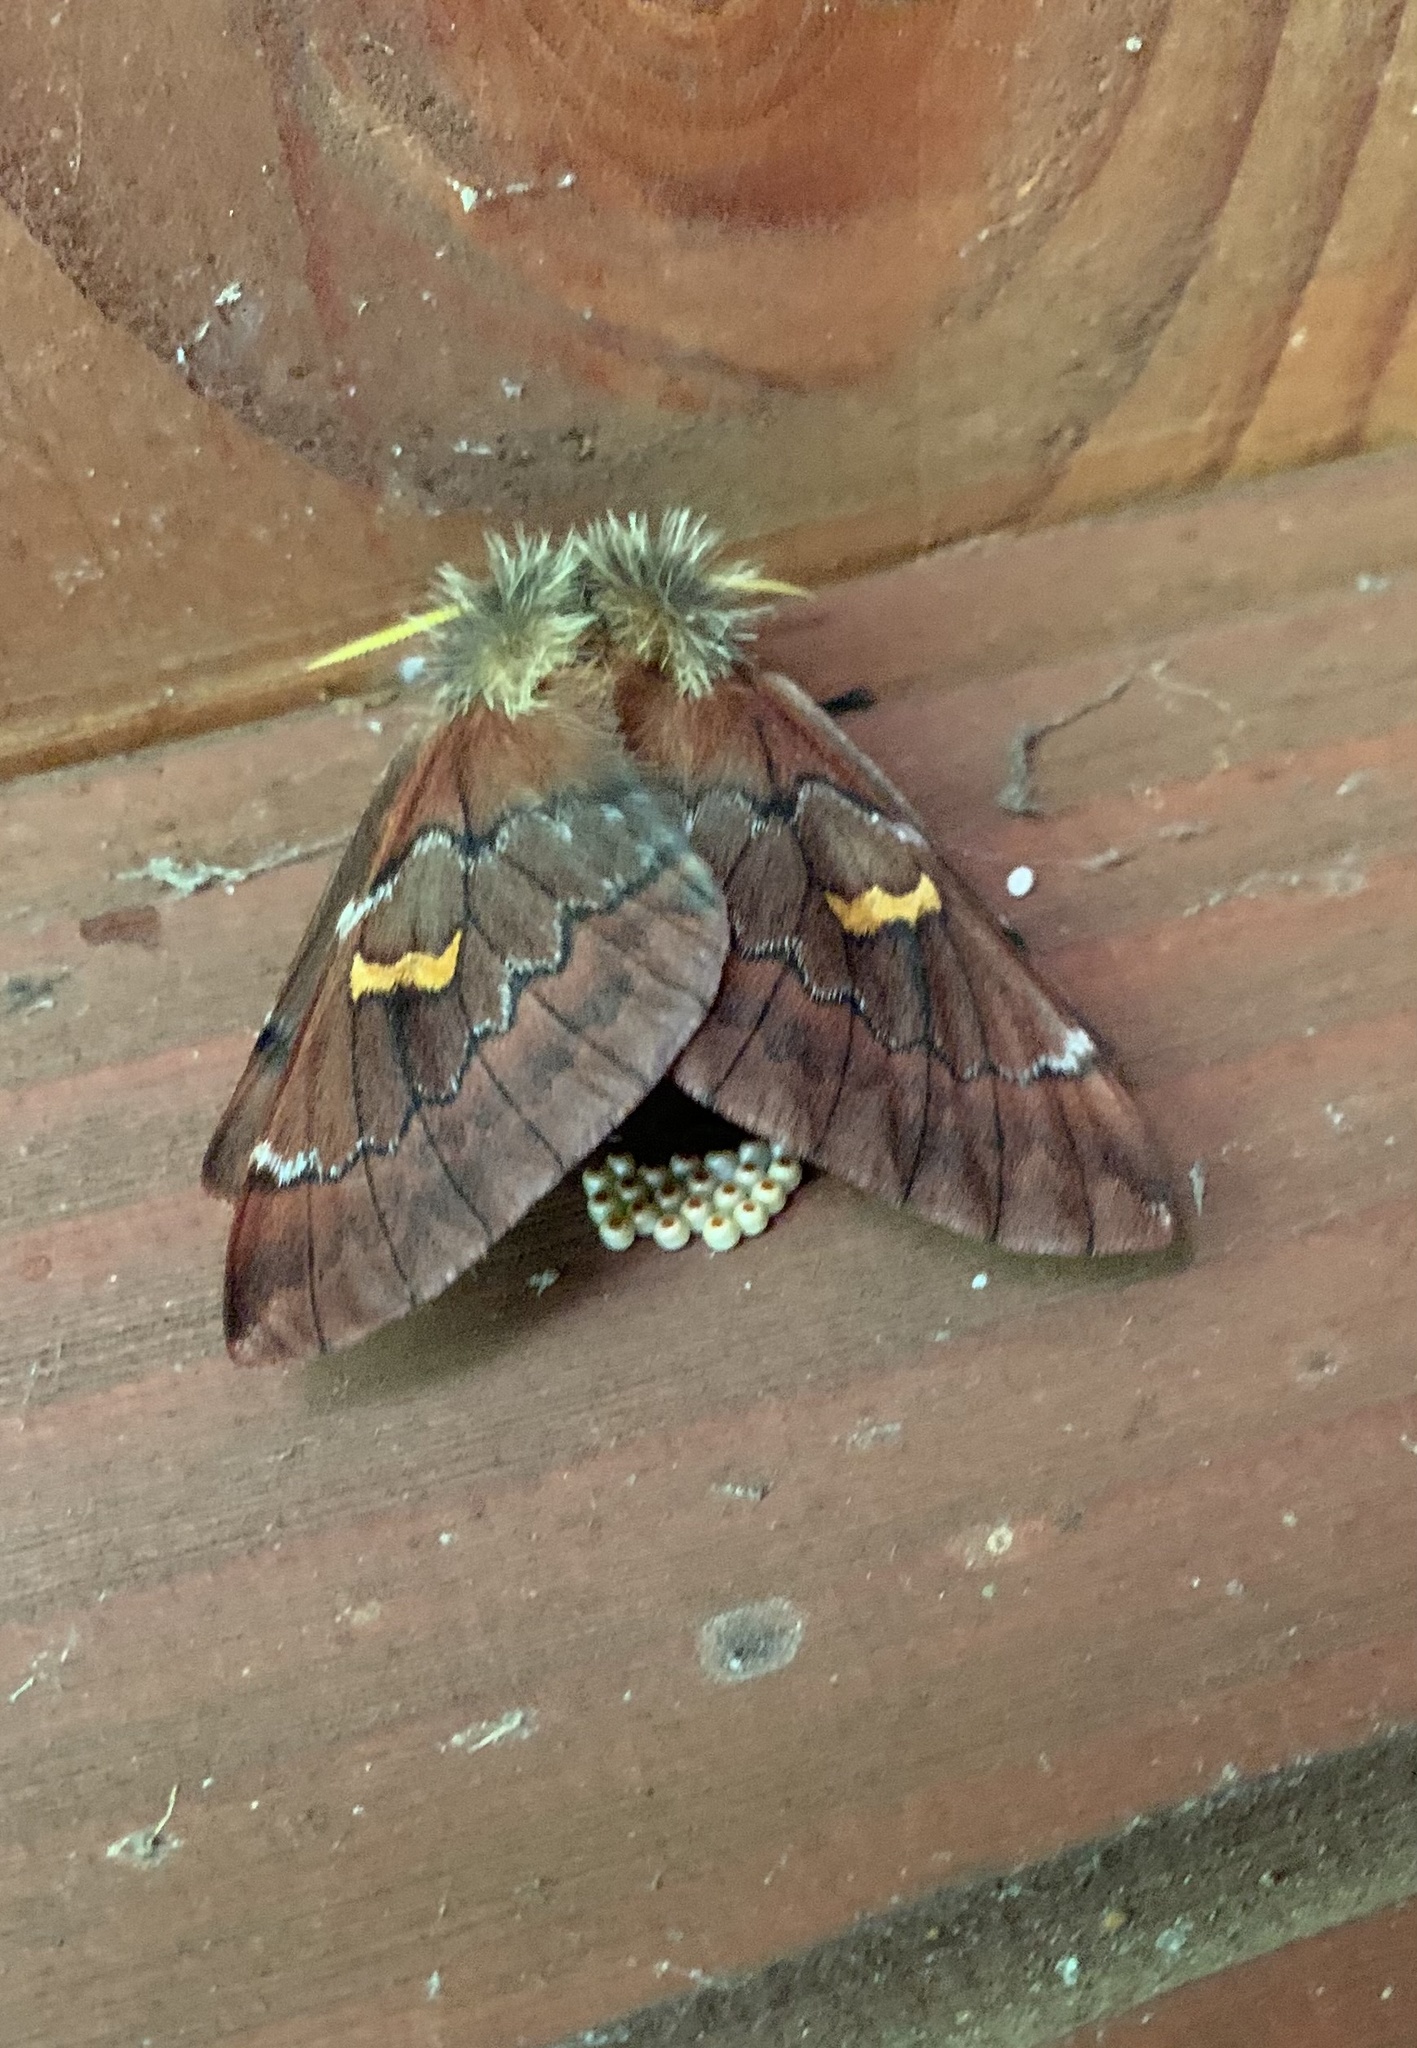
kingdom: Animalia
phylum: Arthropoda
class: Insecta
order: Lepidoptera
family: Saturniidae
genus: Ormiscodes
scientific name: Ormiscodes joiceyi
